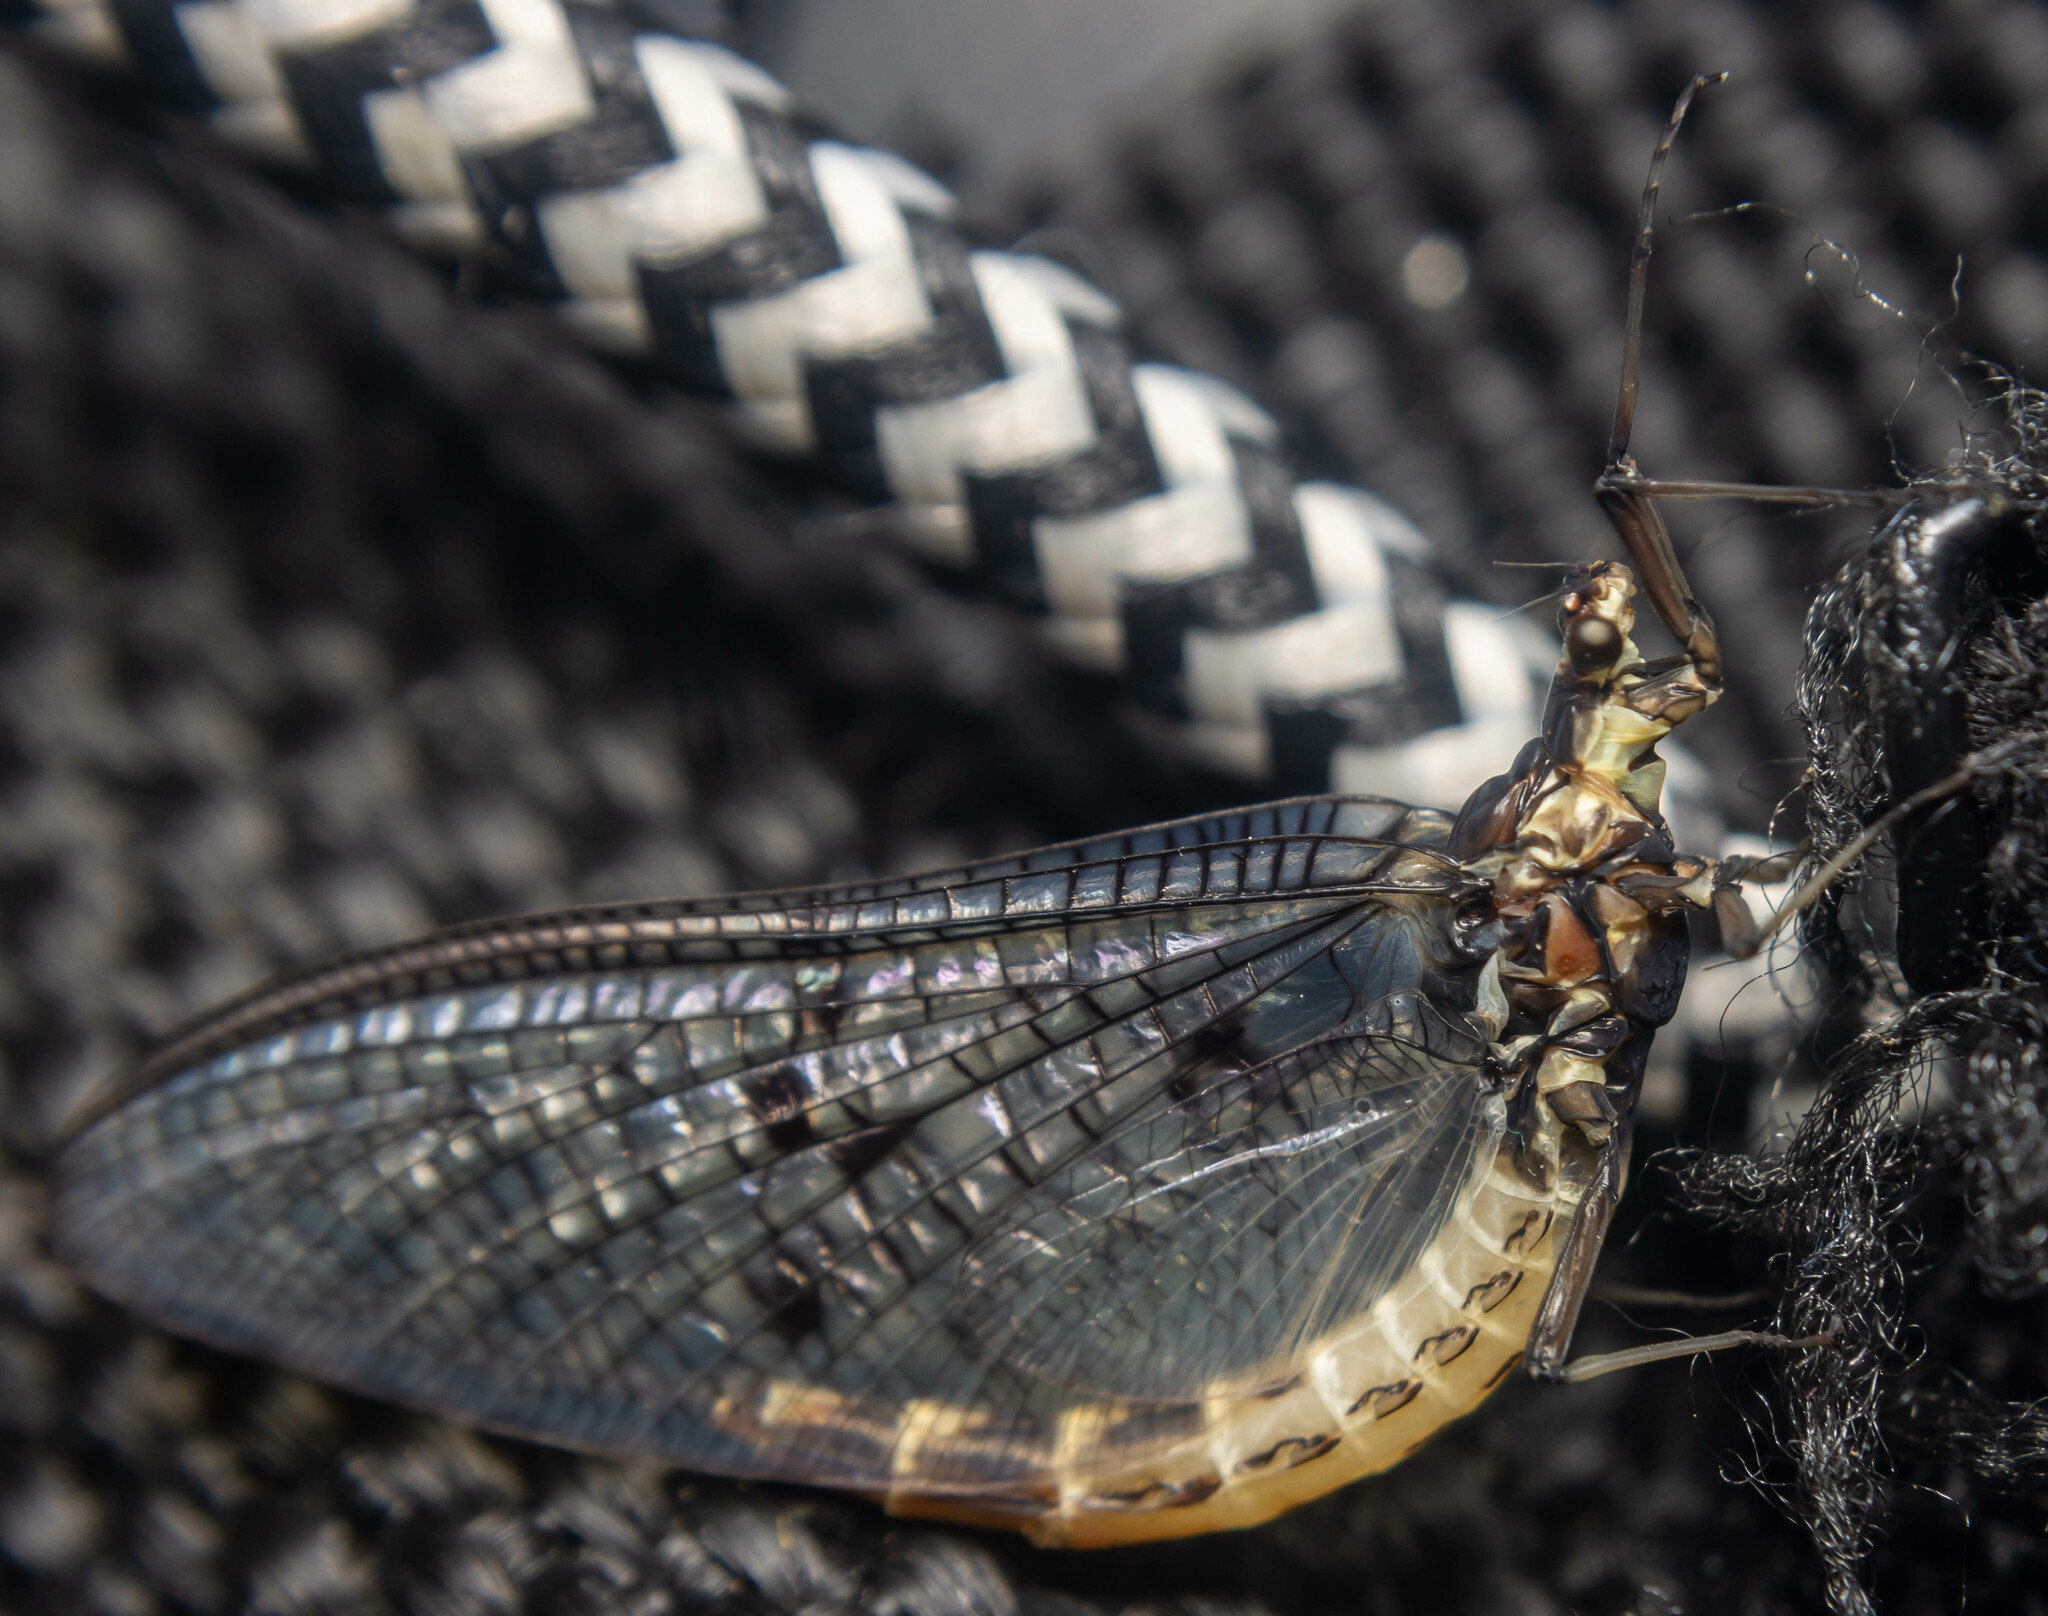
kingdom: Animalia
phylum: Arthropoda
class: Insecta
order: Ephemeroptera
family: Ephemeridae
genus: Ephemera
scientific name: Ephemera danica
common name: Green dun
